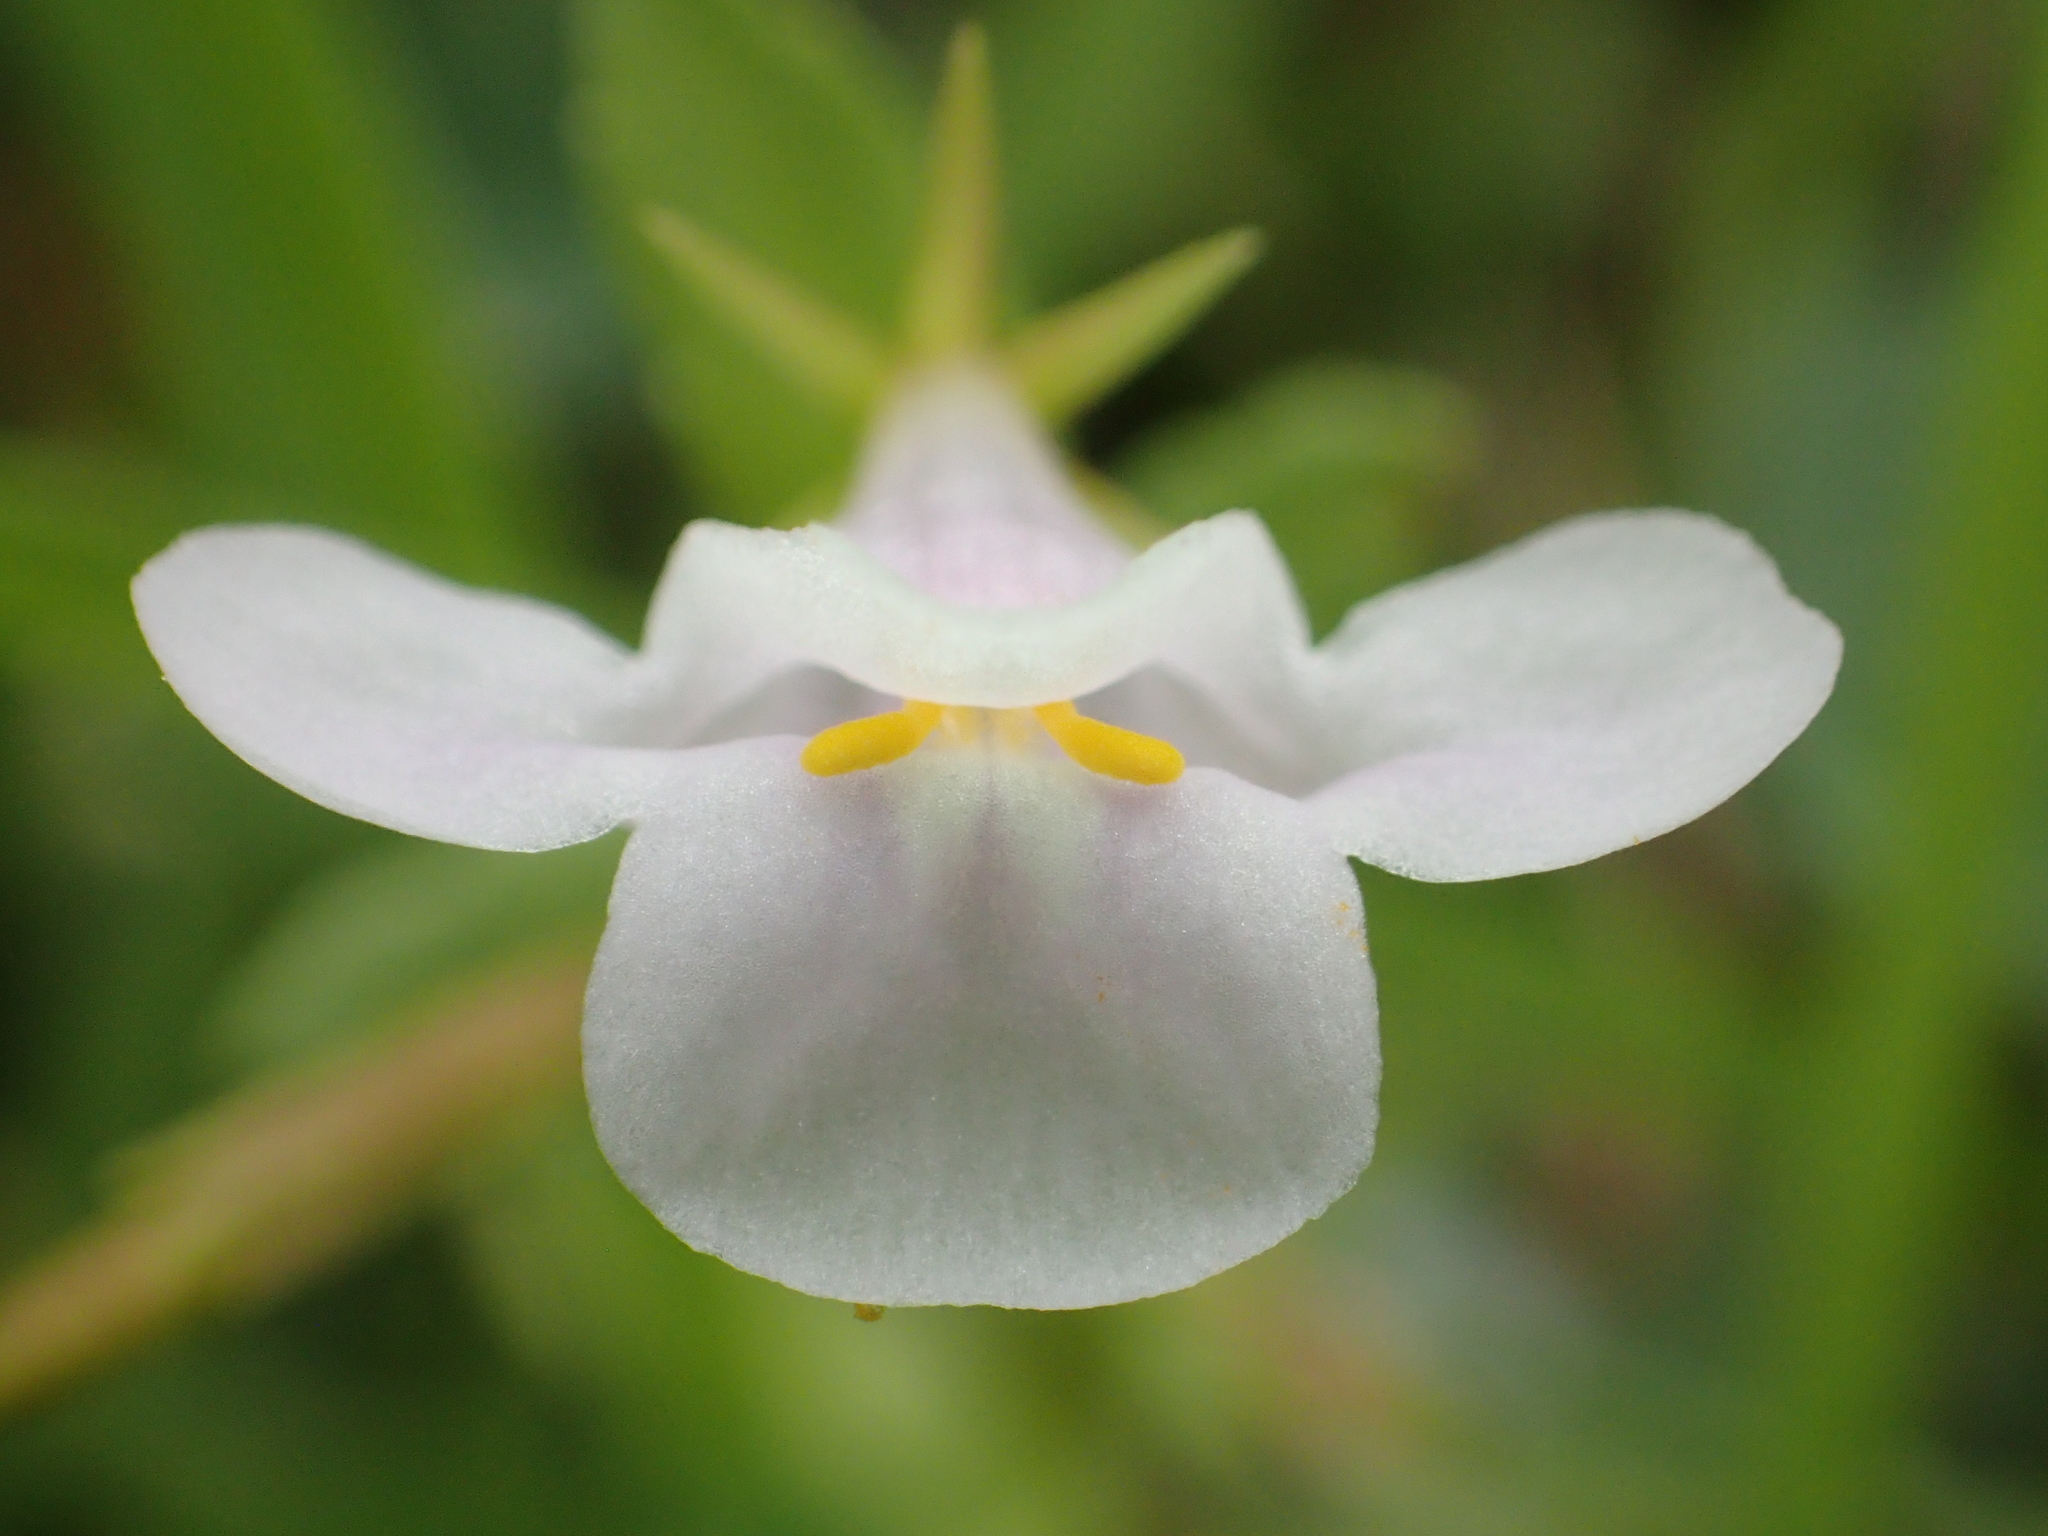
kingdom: Plantae
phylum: Tracheophyta
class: Magnoliopsida
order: Lamiales
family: Linderniaceae
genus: Bonnaya
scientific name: Bonnaya antipoda
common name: Sparrow false pimpernel
